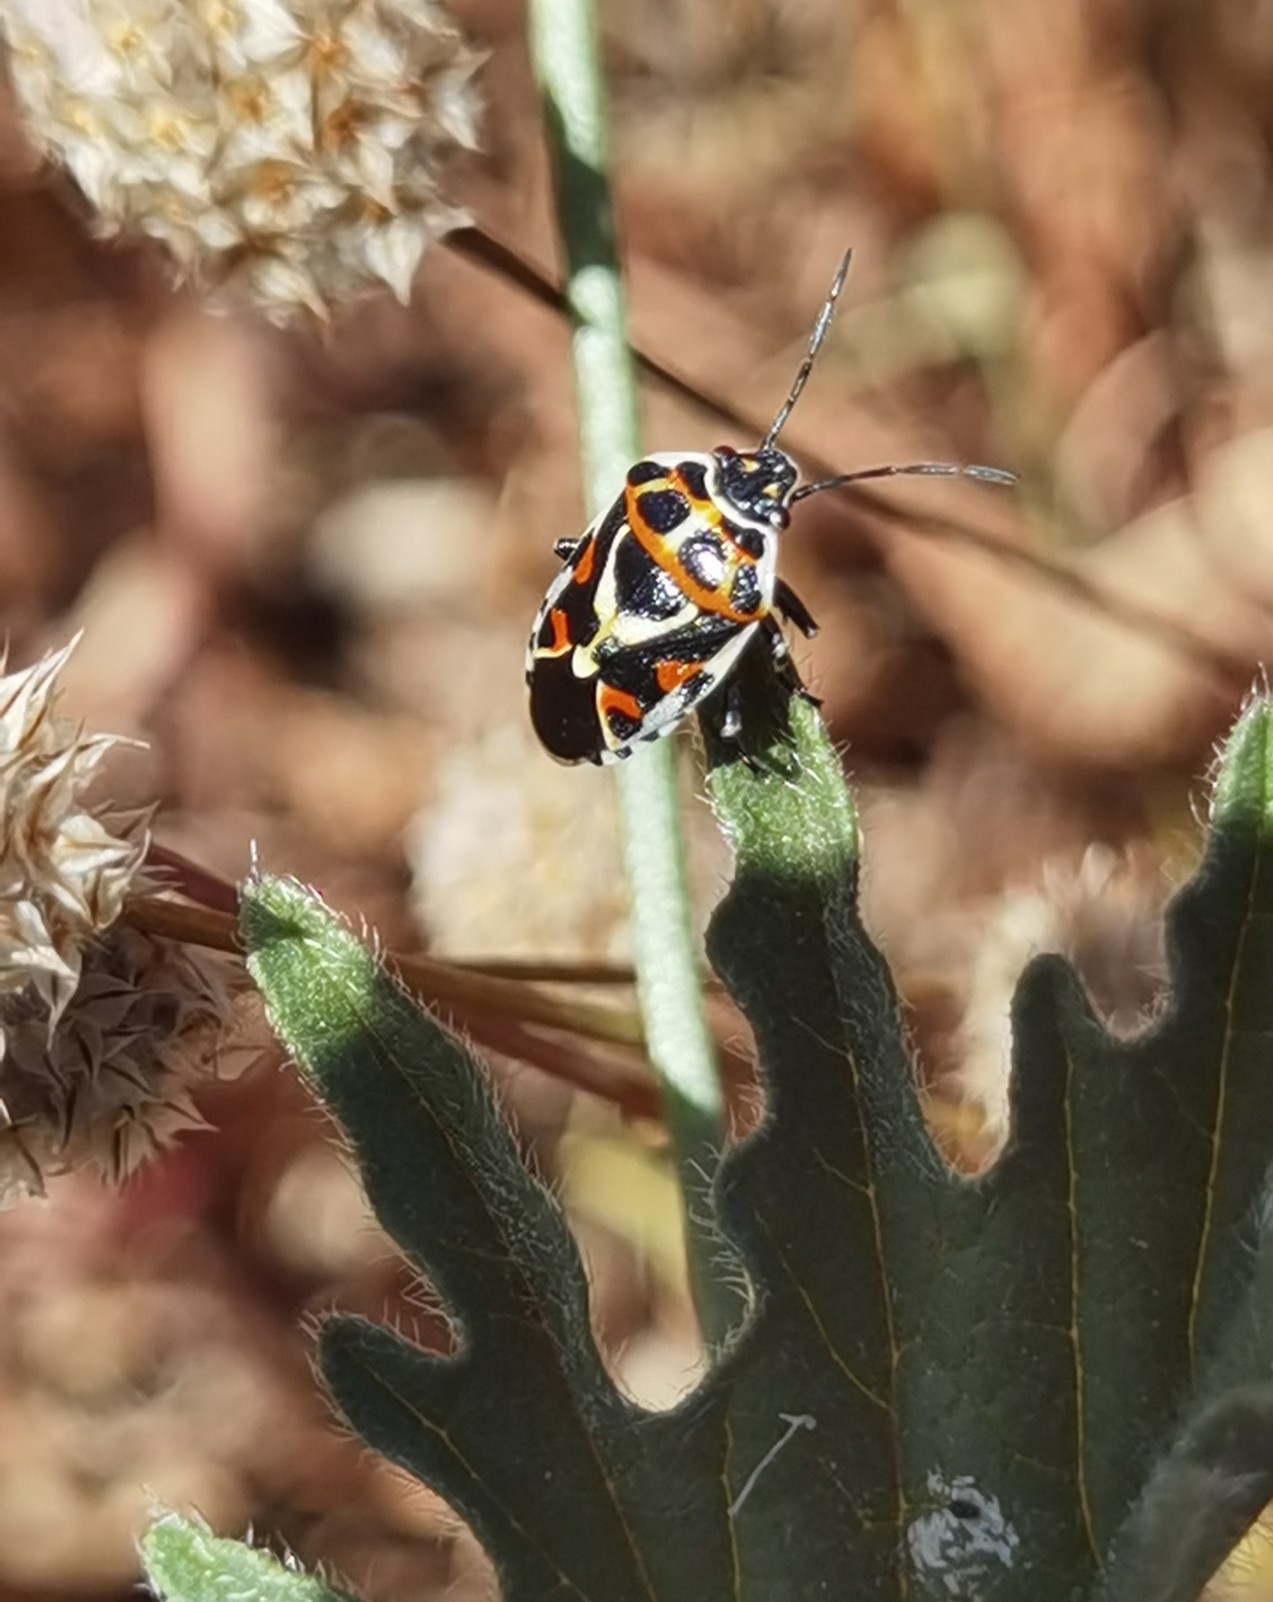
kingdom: Animalia
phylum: Arthropoda
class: Insecta
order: Hemiptera
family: Pentatomidae
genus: Eurydema
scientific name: Eurydema ornata
